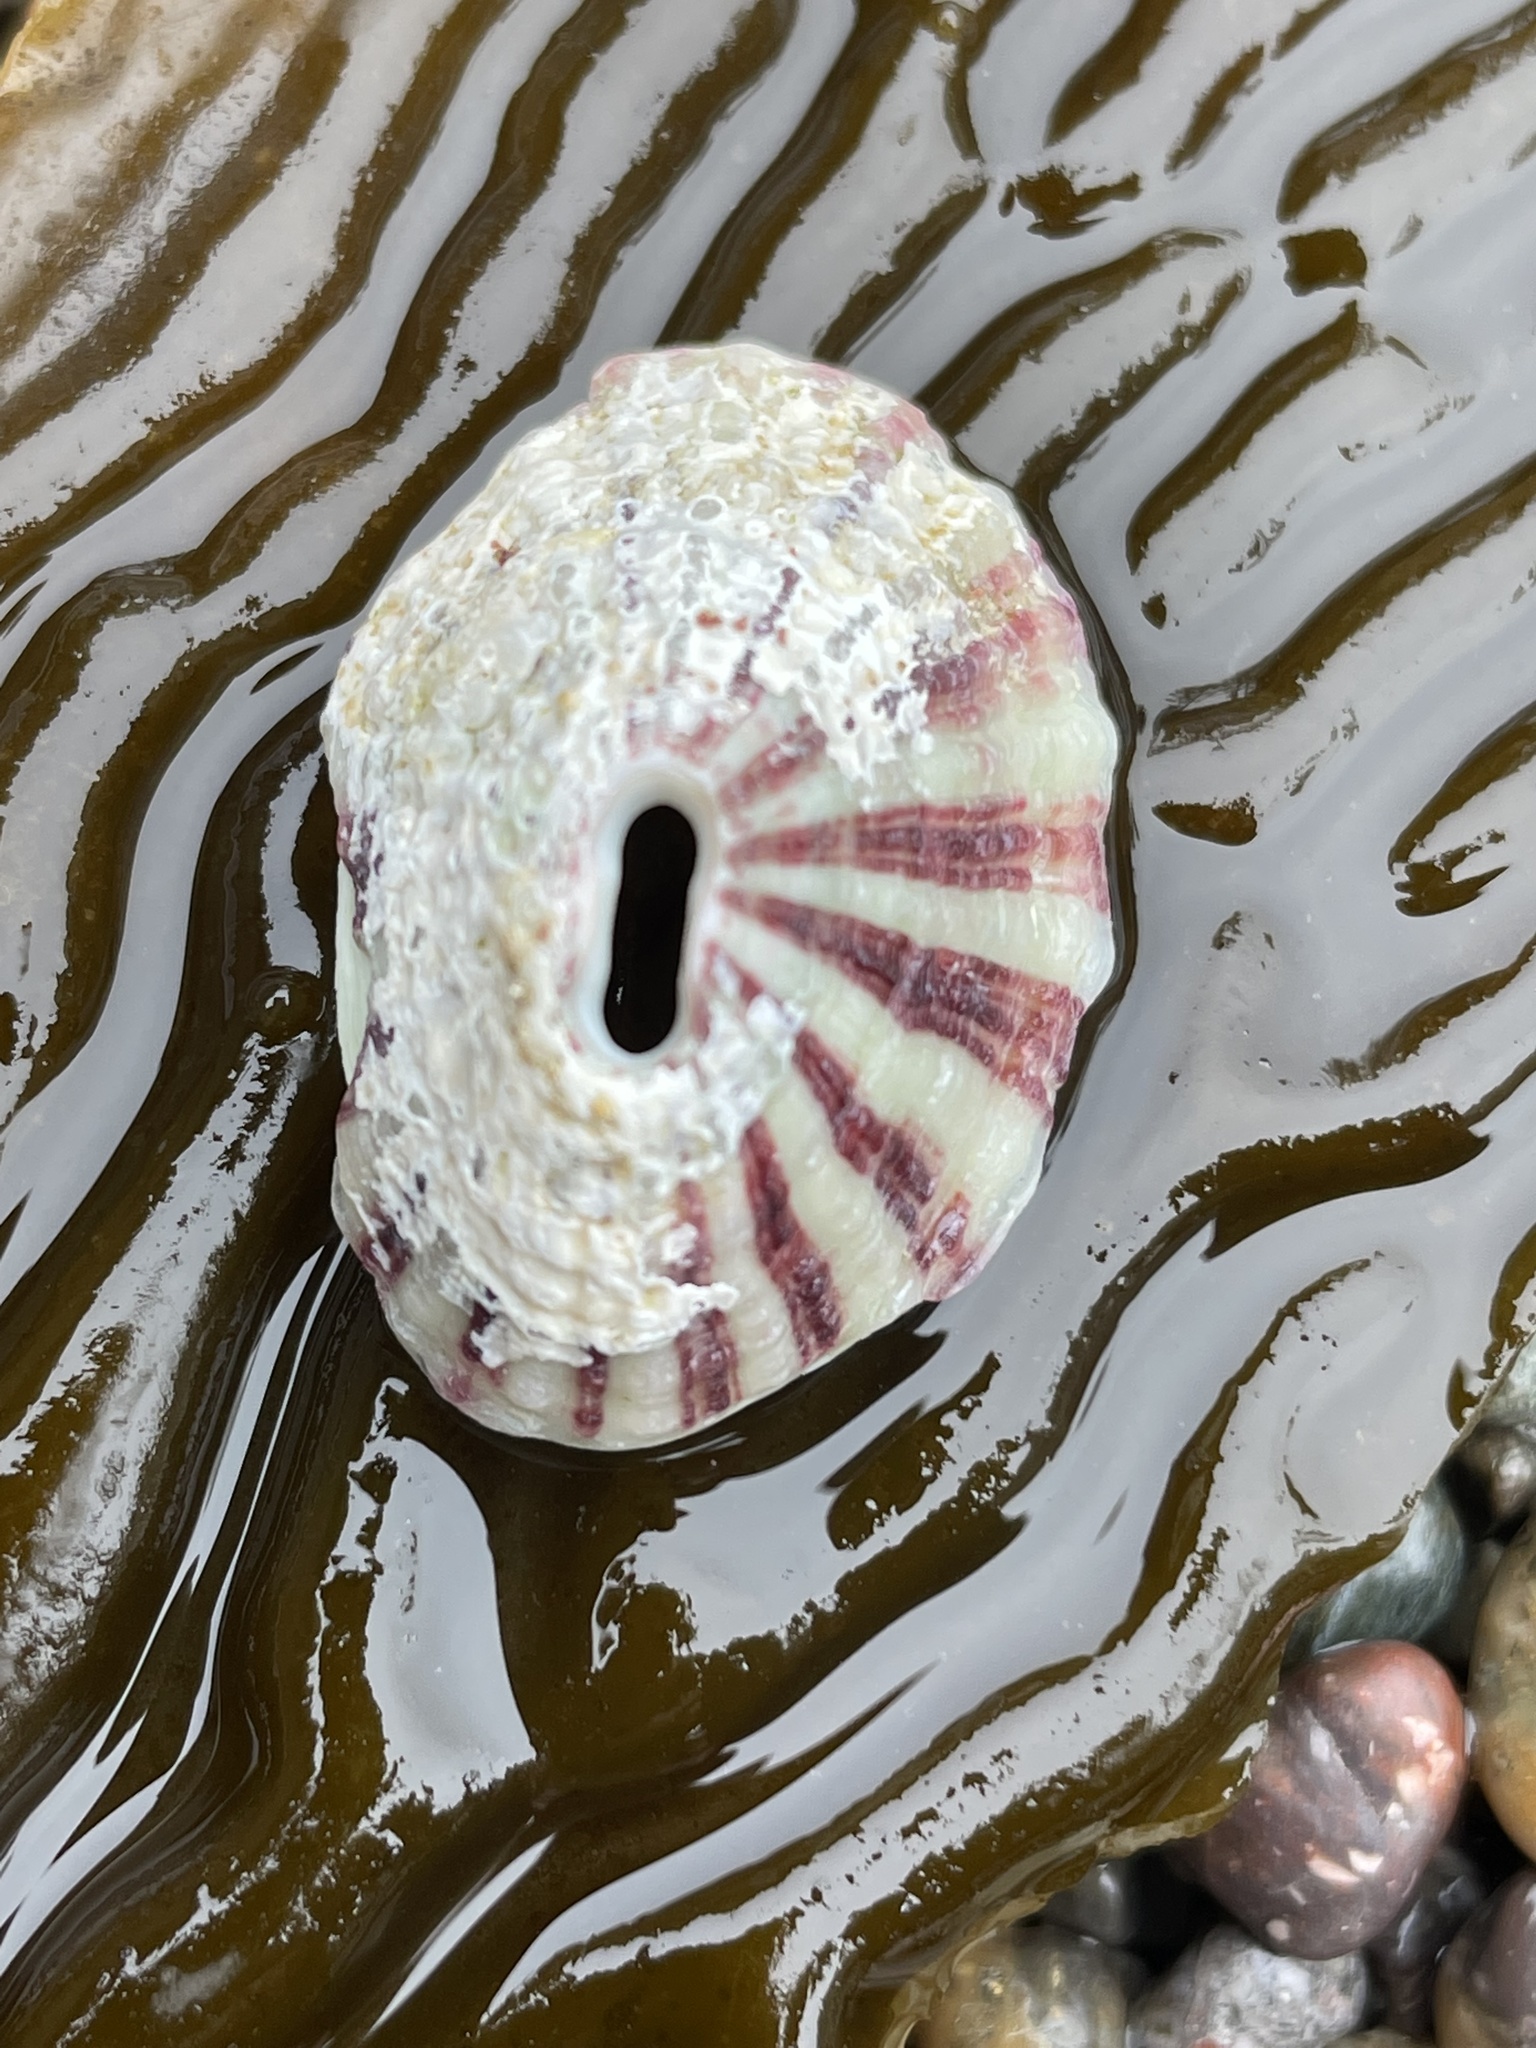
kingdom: Animalia
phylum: Mollusca
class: Gastropoda
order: Lepetellida
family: Fissurellidae
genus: Fissurella
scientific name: Fissurella volcano
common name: Volcano keyhole limpet
